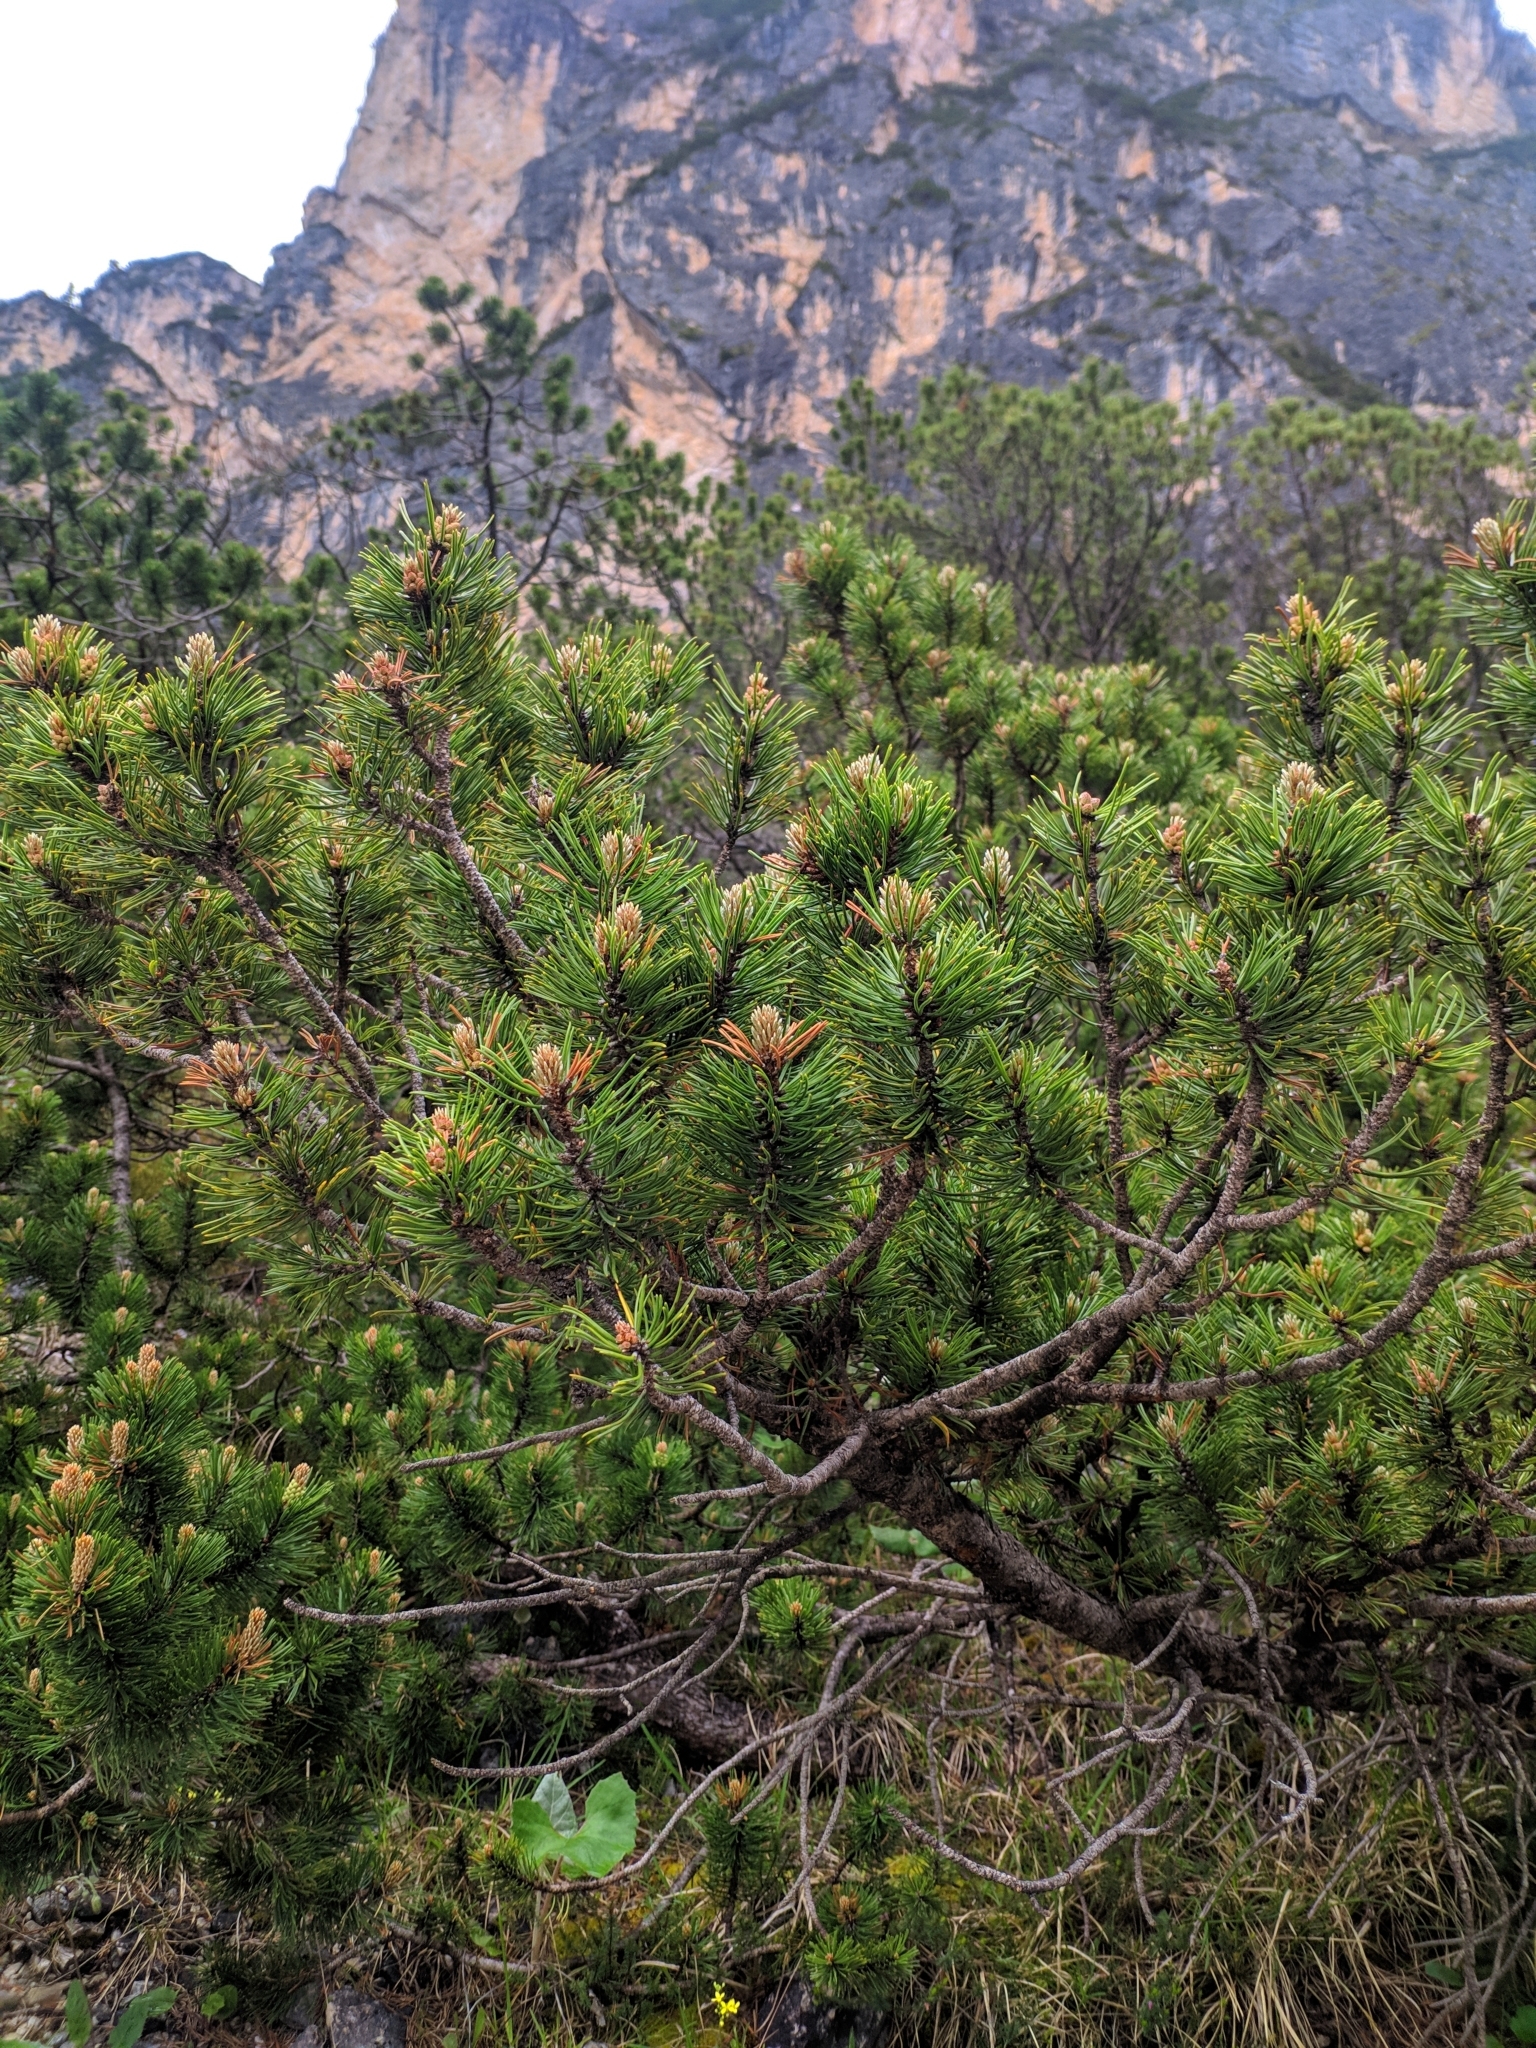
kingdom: Plantae
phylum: Tracheophyta
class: Pinopsida
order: Pinales
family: Pinaceae
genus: Pinus
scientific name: Pinus mugo
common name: Mugo pine
